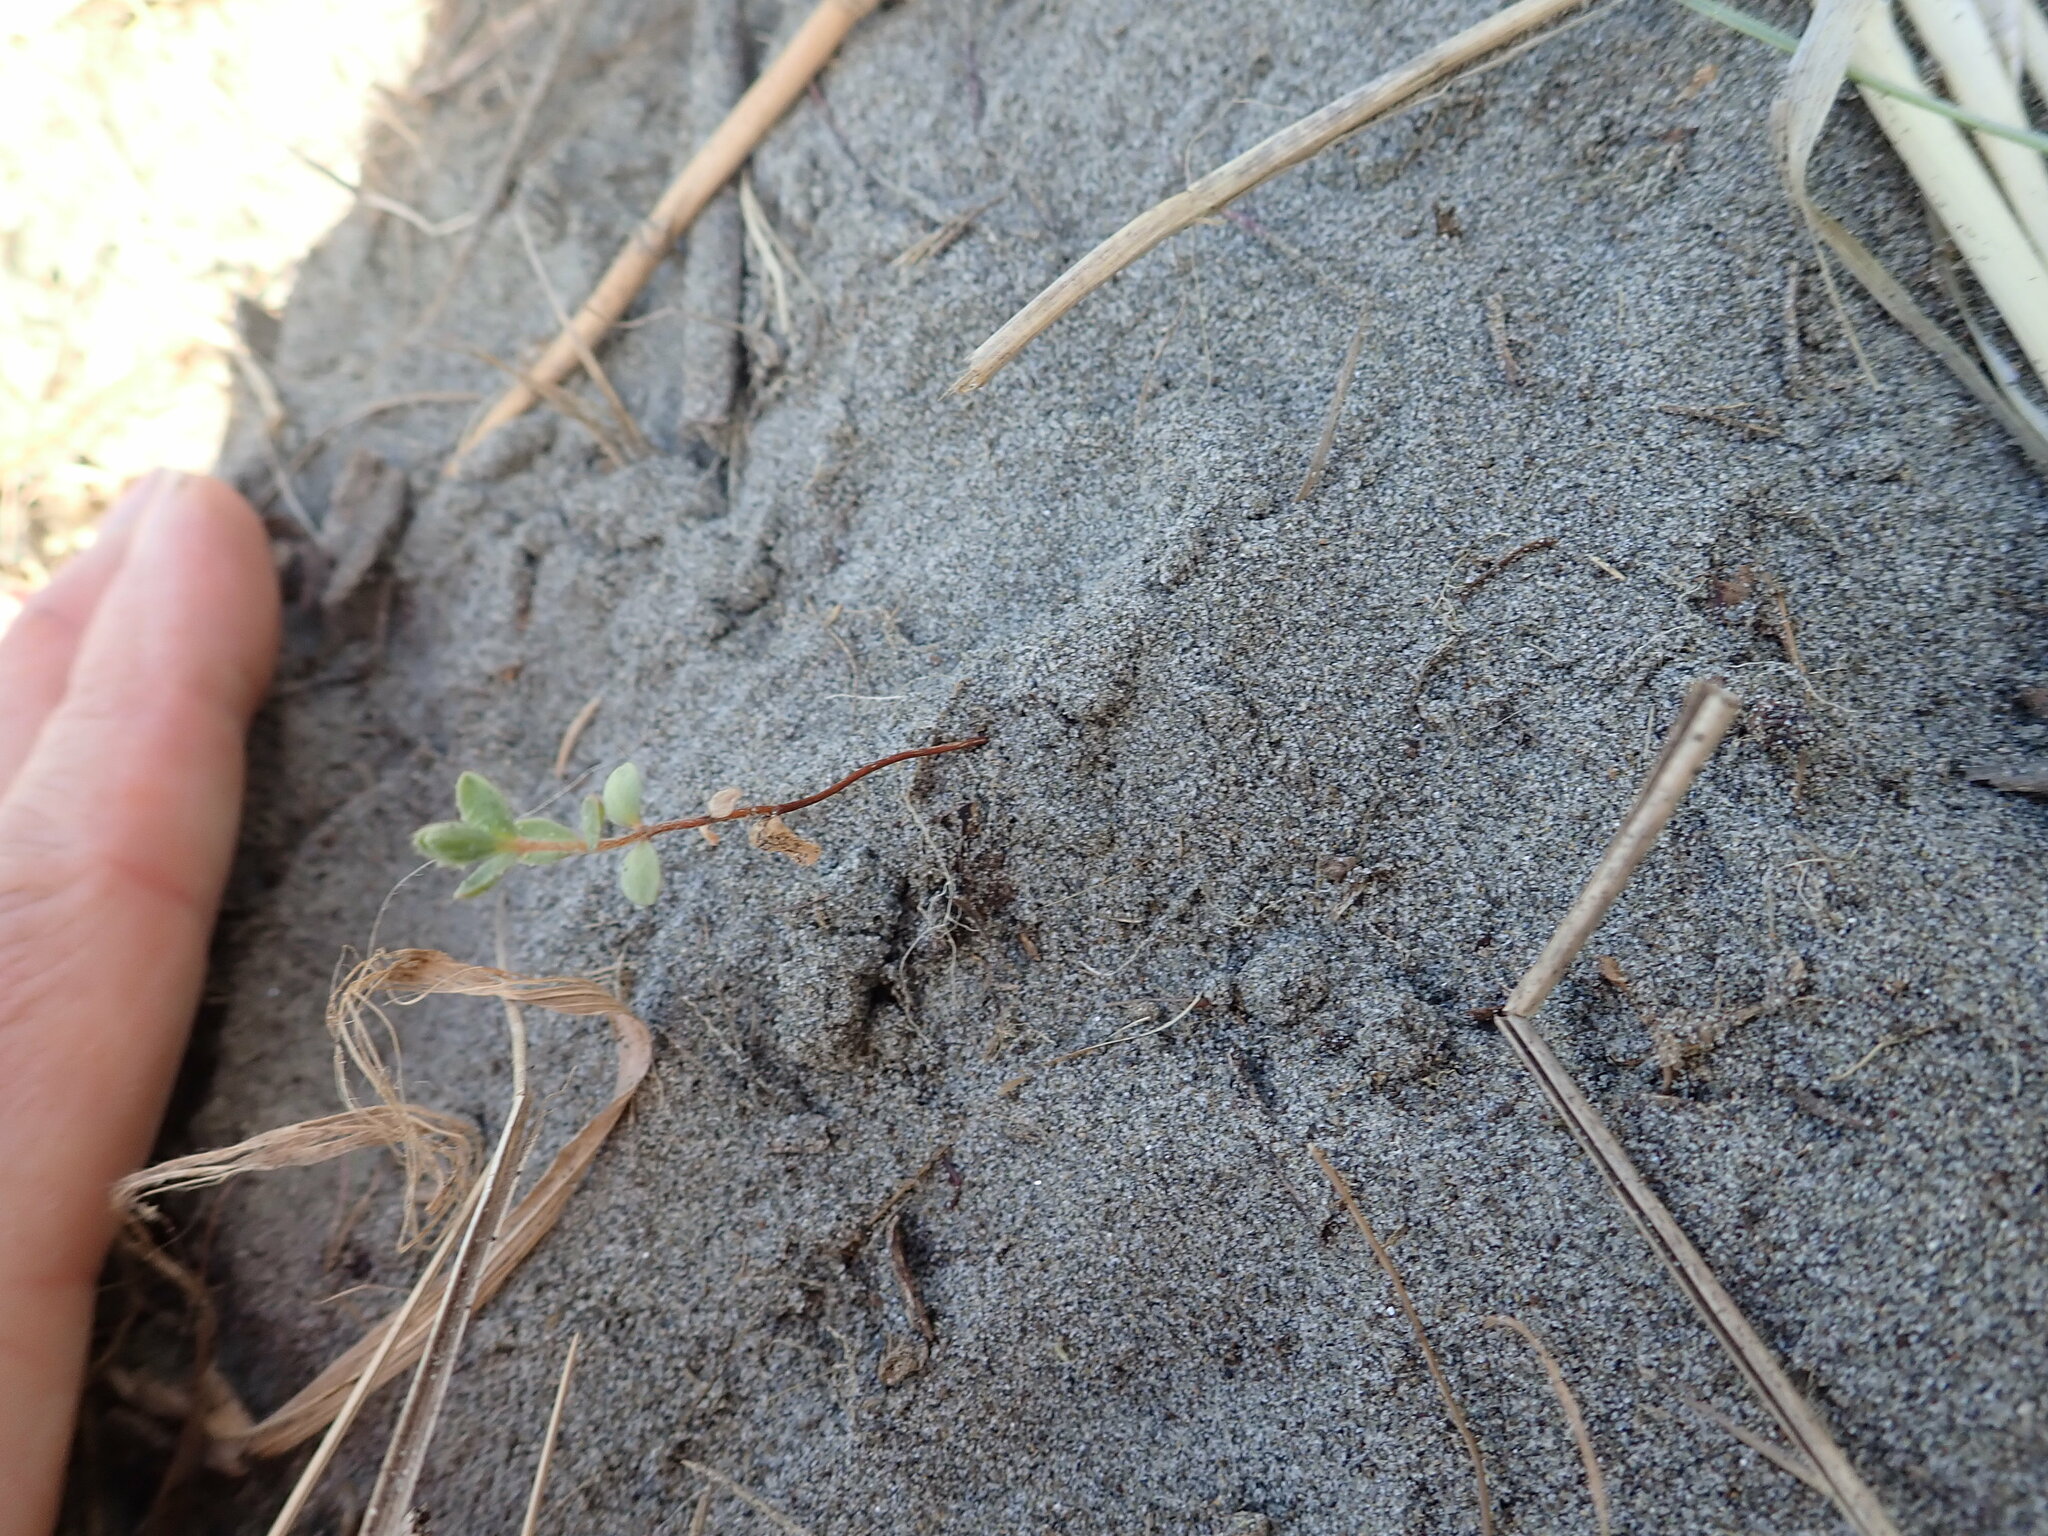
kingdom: Plantae
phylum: Tracheophyta
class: Magnoliopsida
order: Malvales
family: Thymelaeaceae
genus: Pimelea
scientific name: Pimelea villosa
